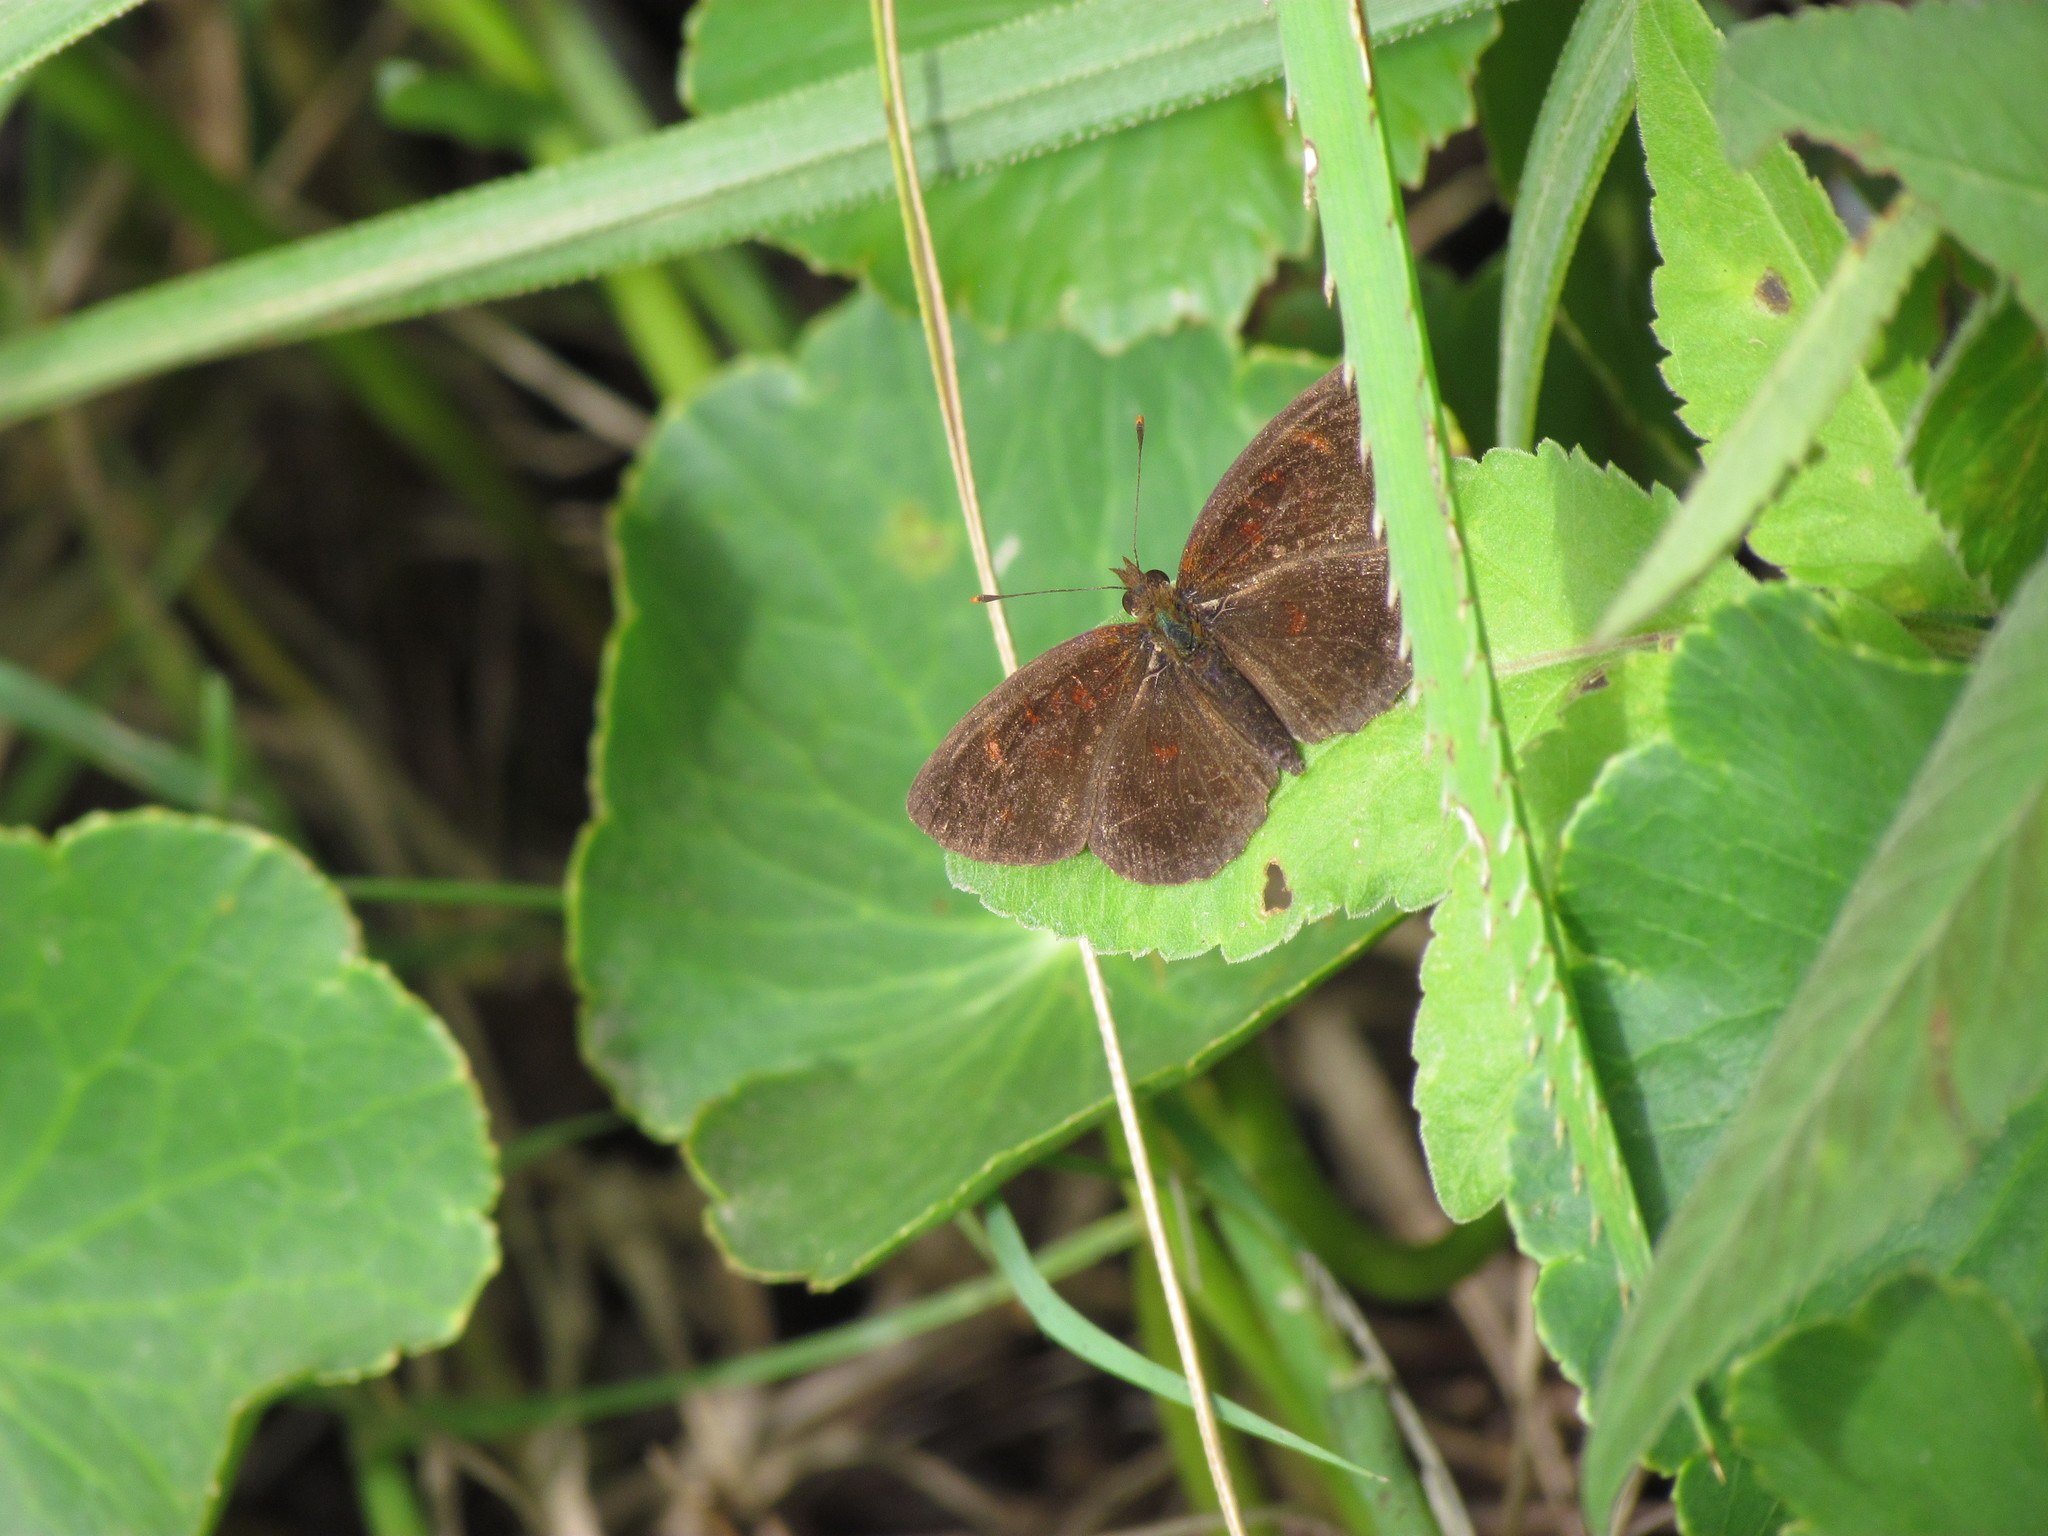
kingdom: Animalia
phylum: Arthropoda
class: Insecta
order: Lepidoptera
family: Nymphalidae
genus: Ortilia
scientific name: Ortilia velica
